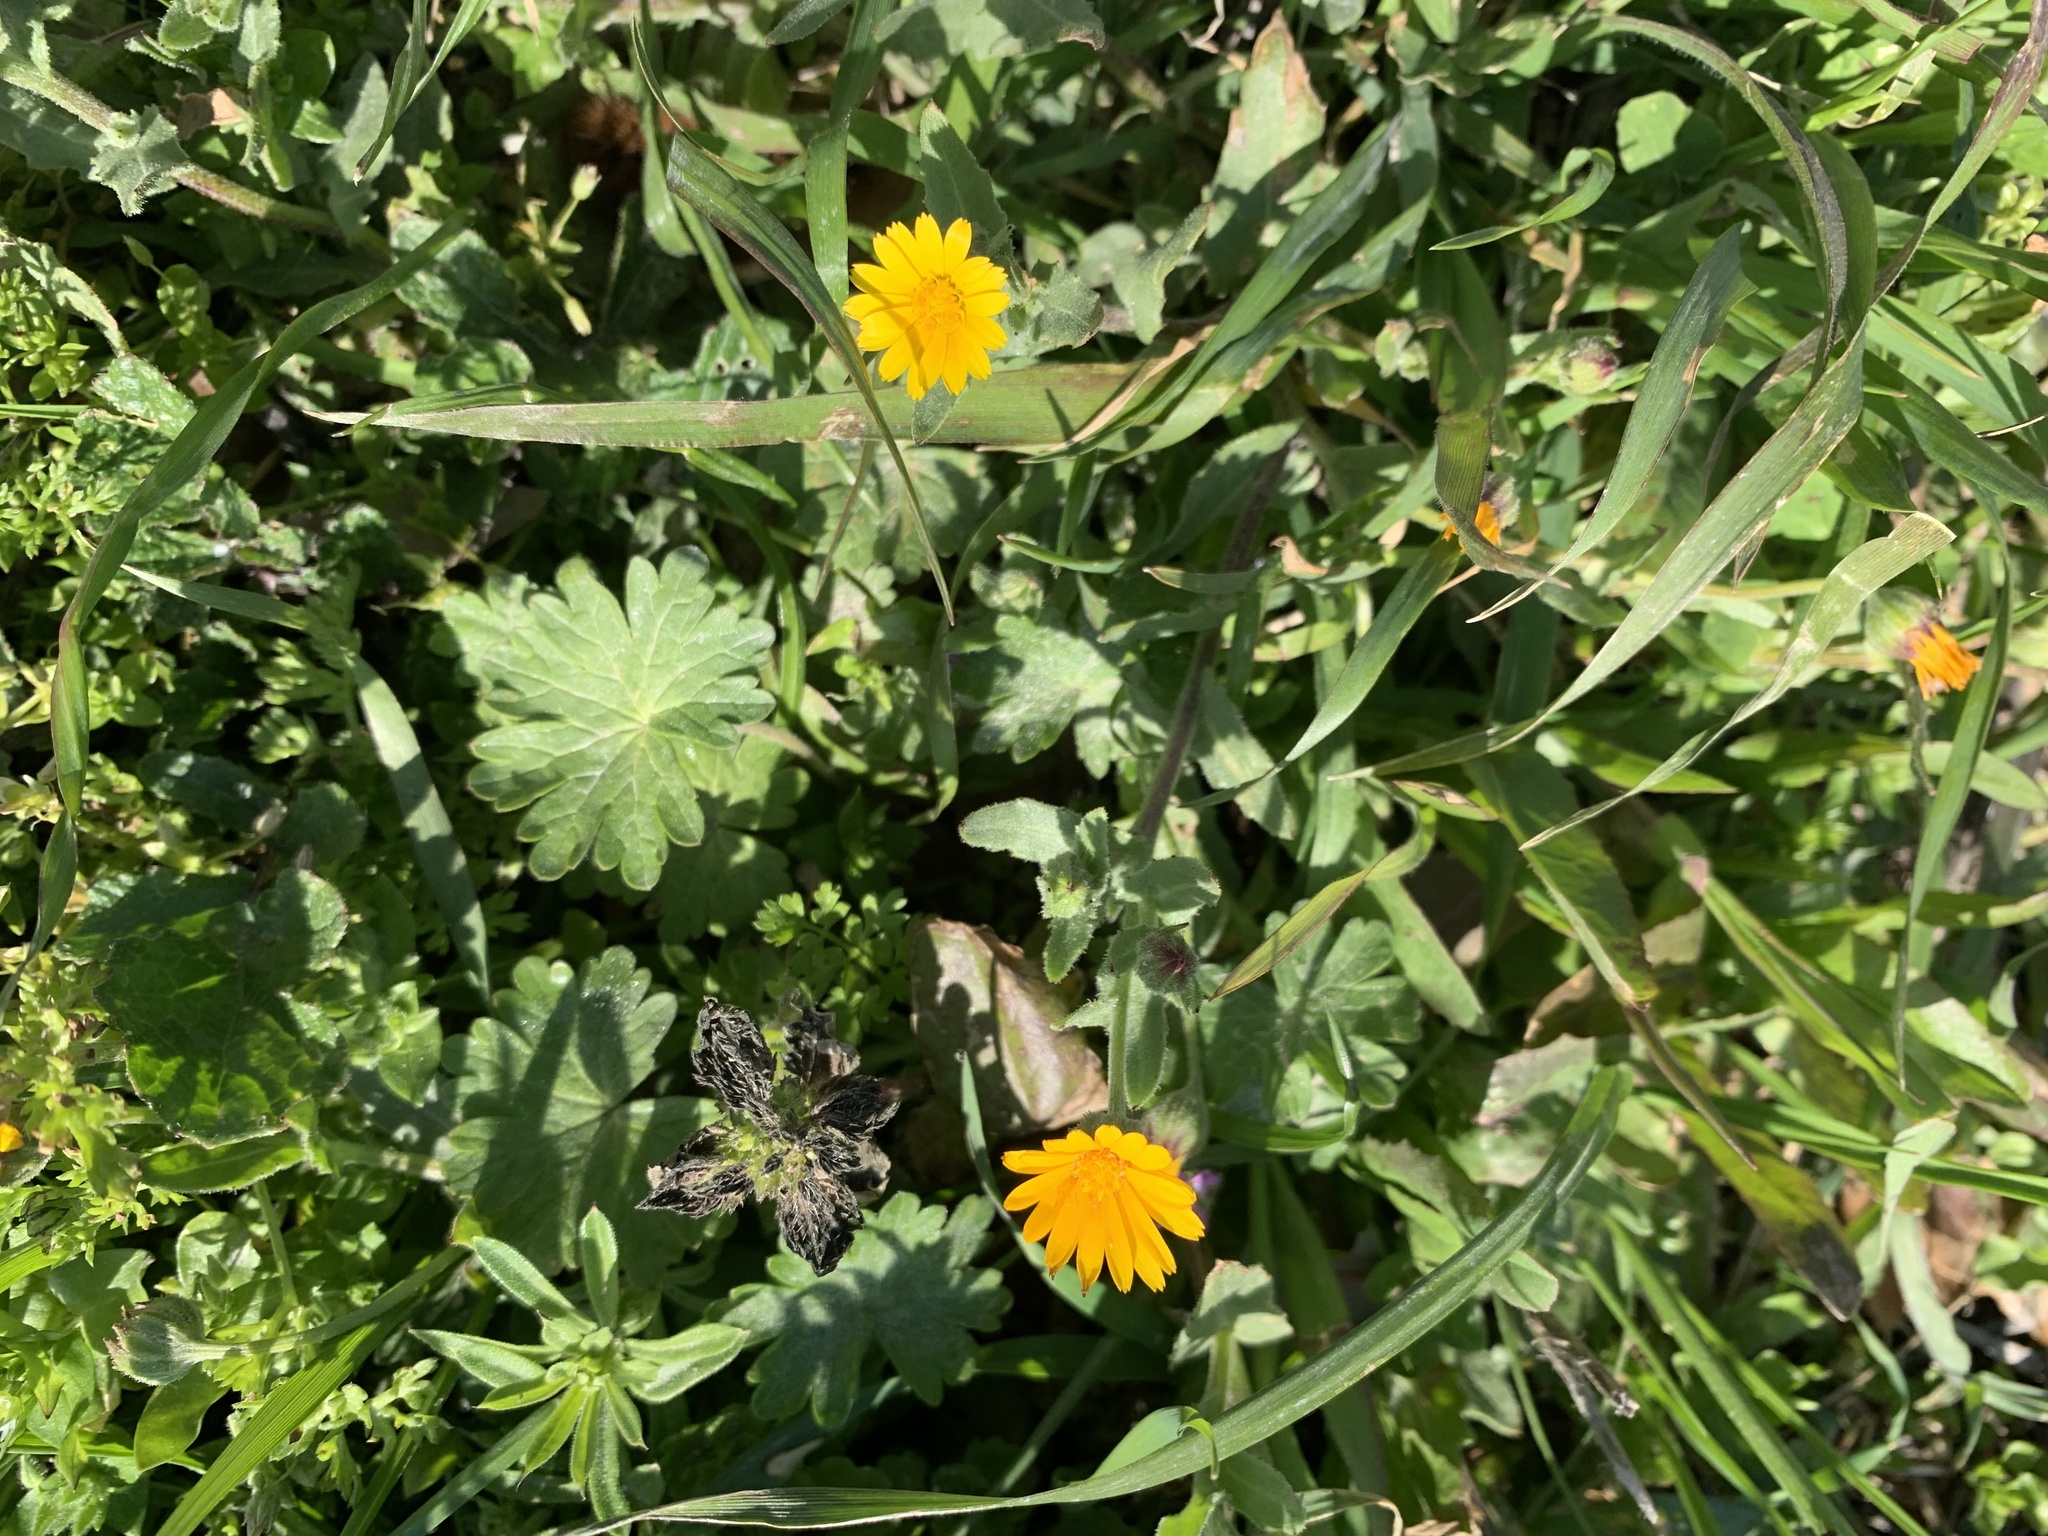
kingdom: Plantae
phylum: Tracheophyta
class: Magnoliopsida
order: Asterales
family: Asteraceae
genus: Calendula
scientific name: Calendula arvensis
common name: Field marigold
